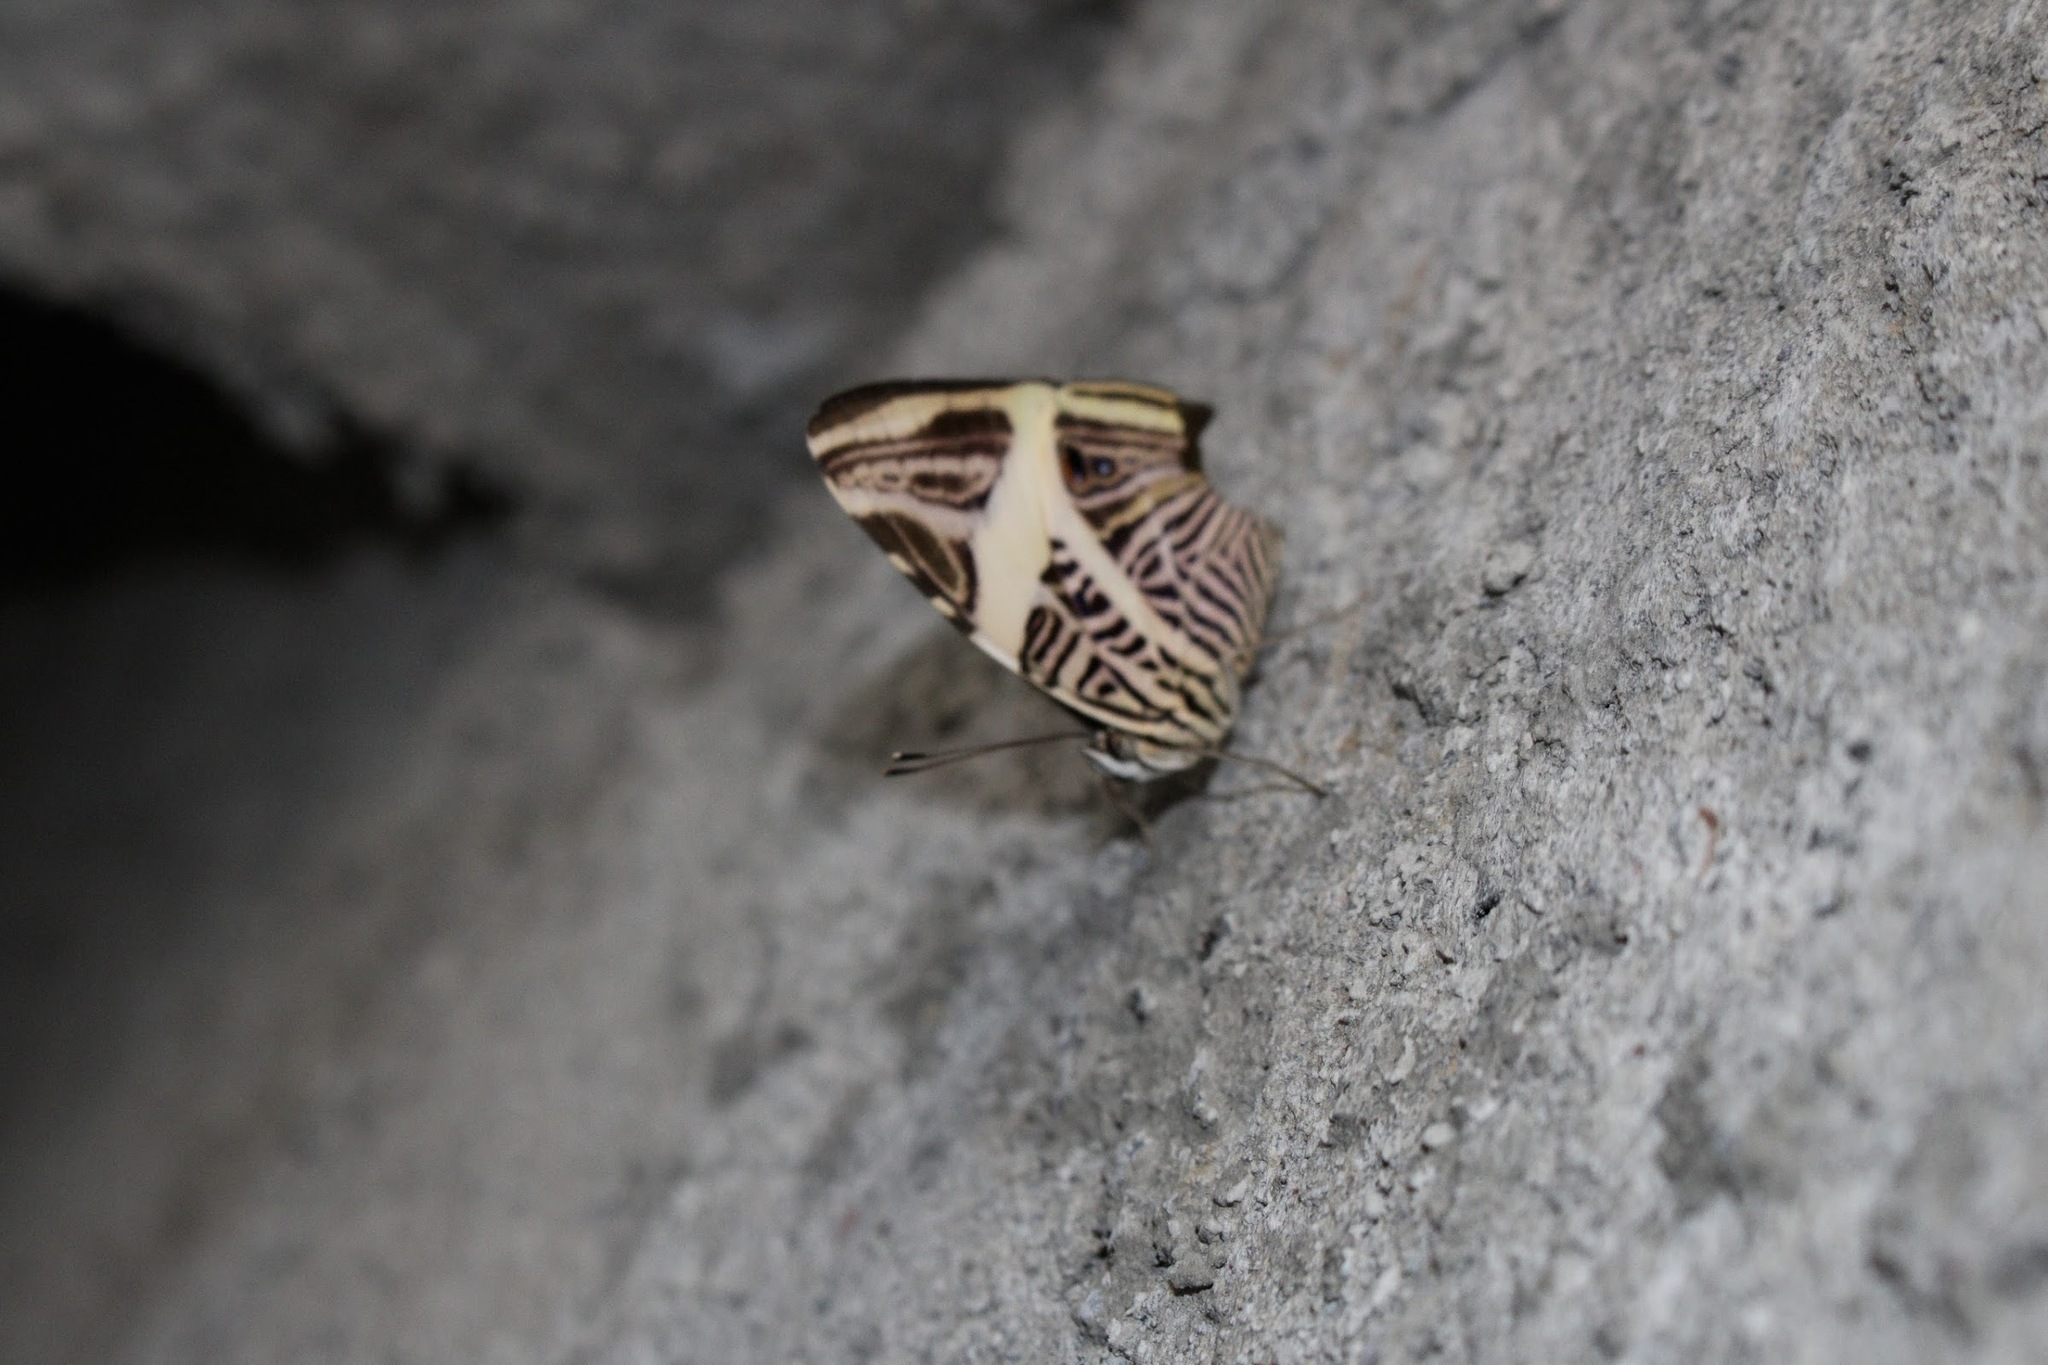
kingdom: Animalia
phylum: Arthropoda
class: Insecta
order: Lepidoptera
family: Nymphalidae
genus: Colobura
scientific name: Colobura dirce
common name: Dirce beauty
